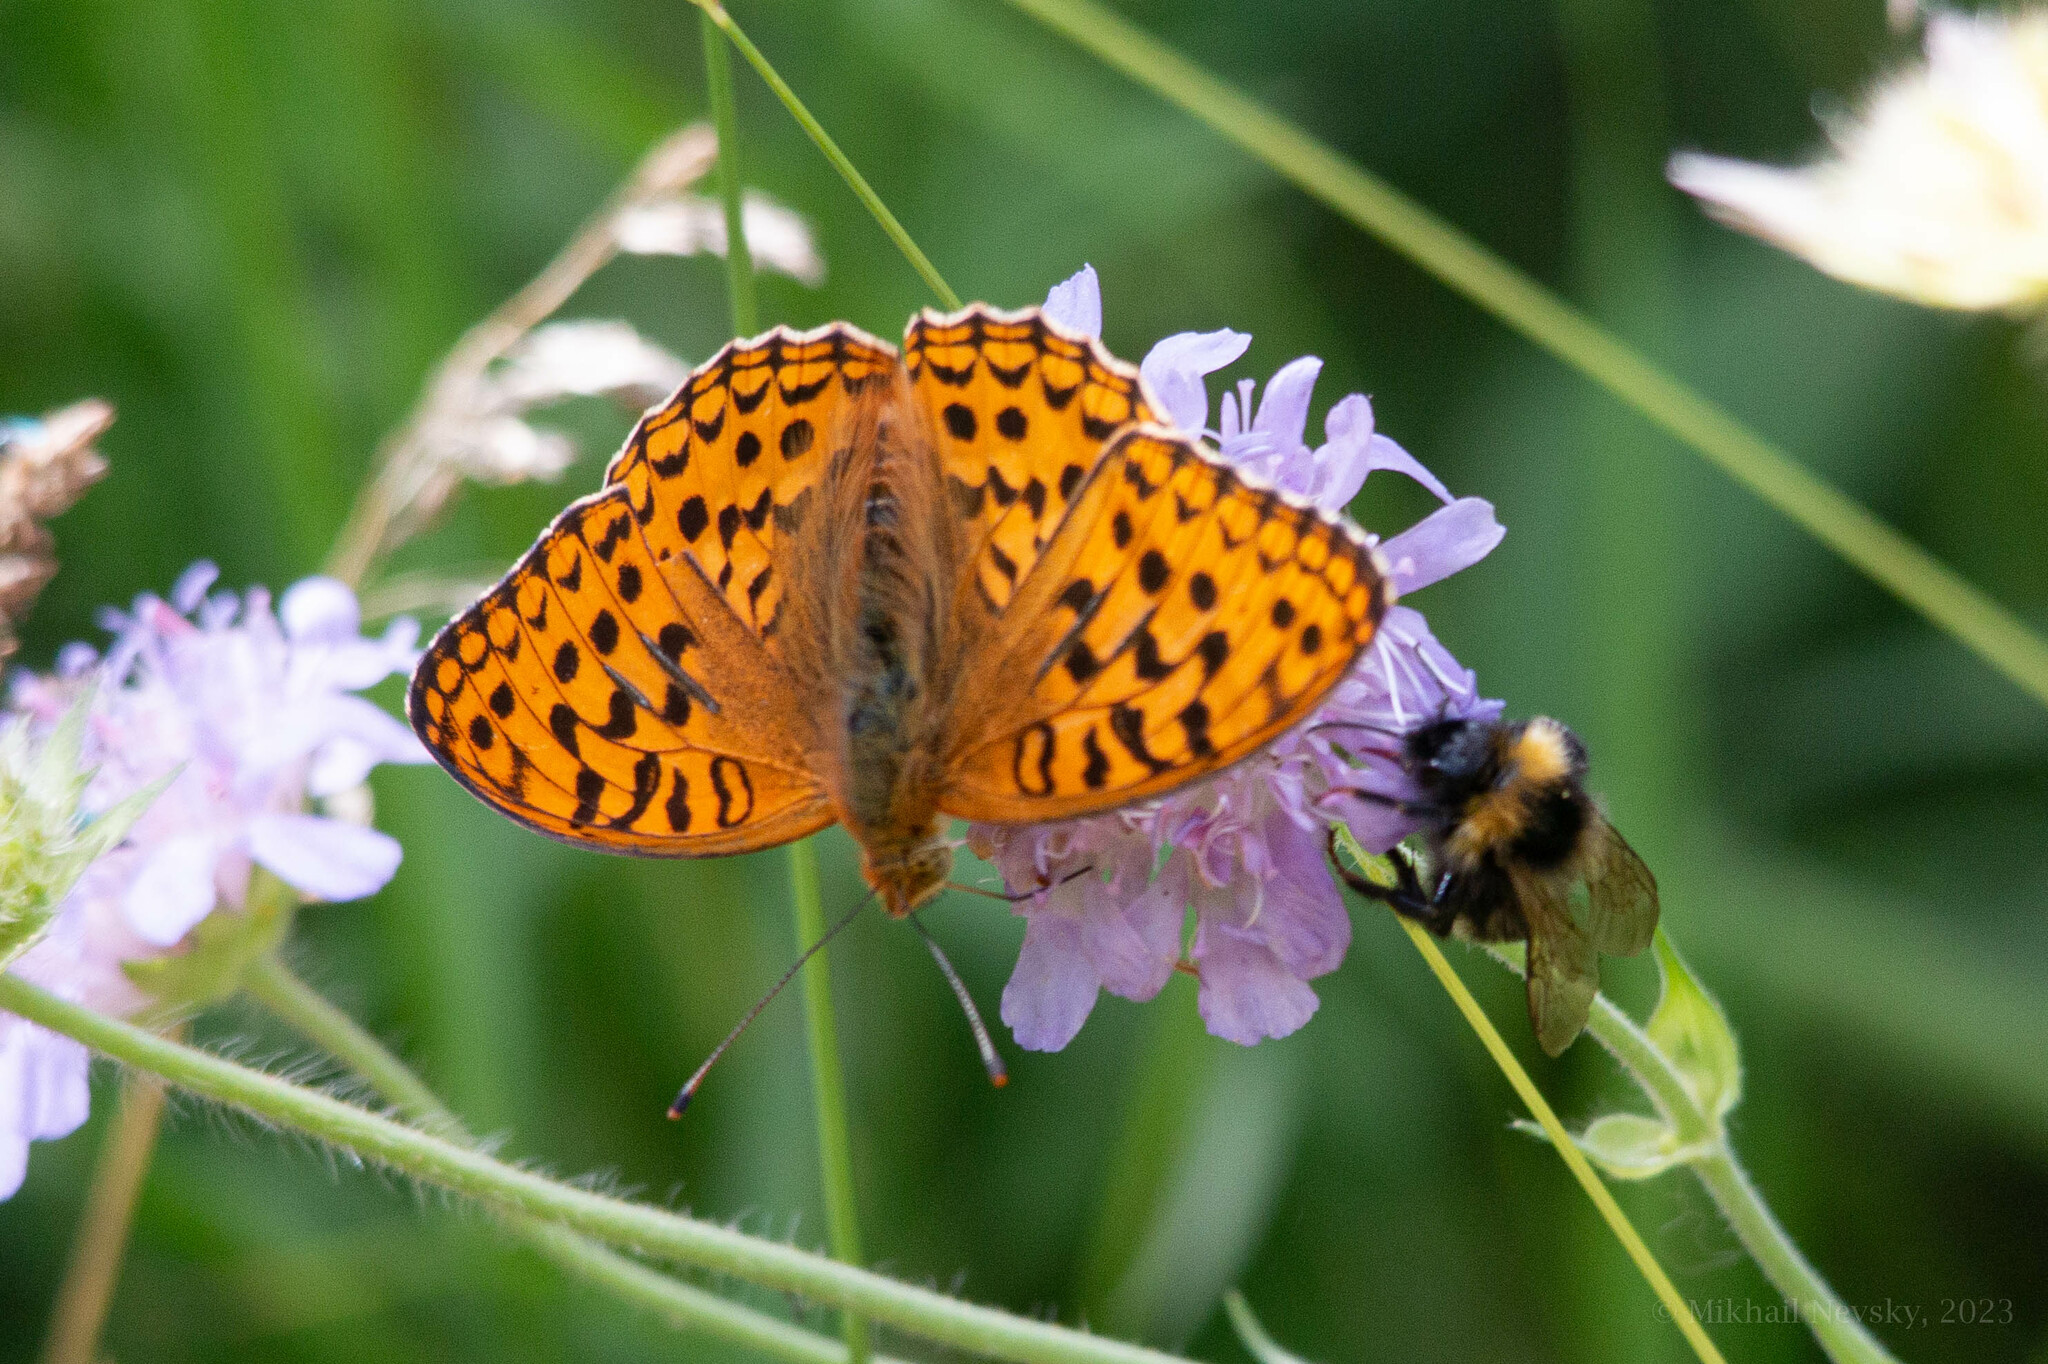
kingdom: Animalia
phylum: Arthropoda
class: Insecta
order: Lepidoptera
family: Nymphalidae
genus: Fabriciana
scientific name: Fabriciana adippe
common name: High brown fritillary
